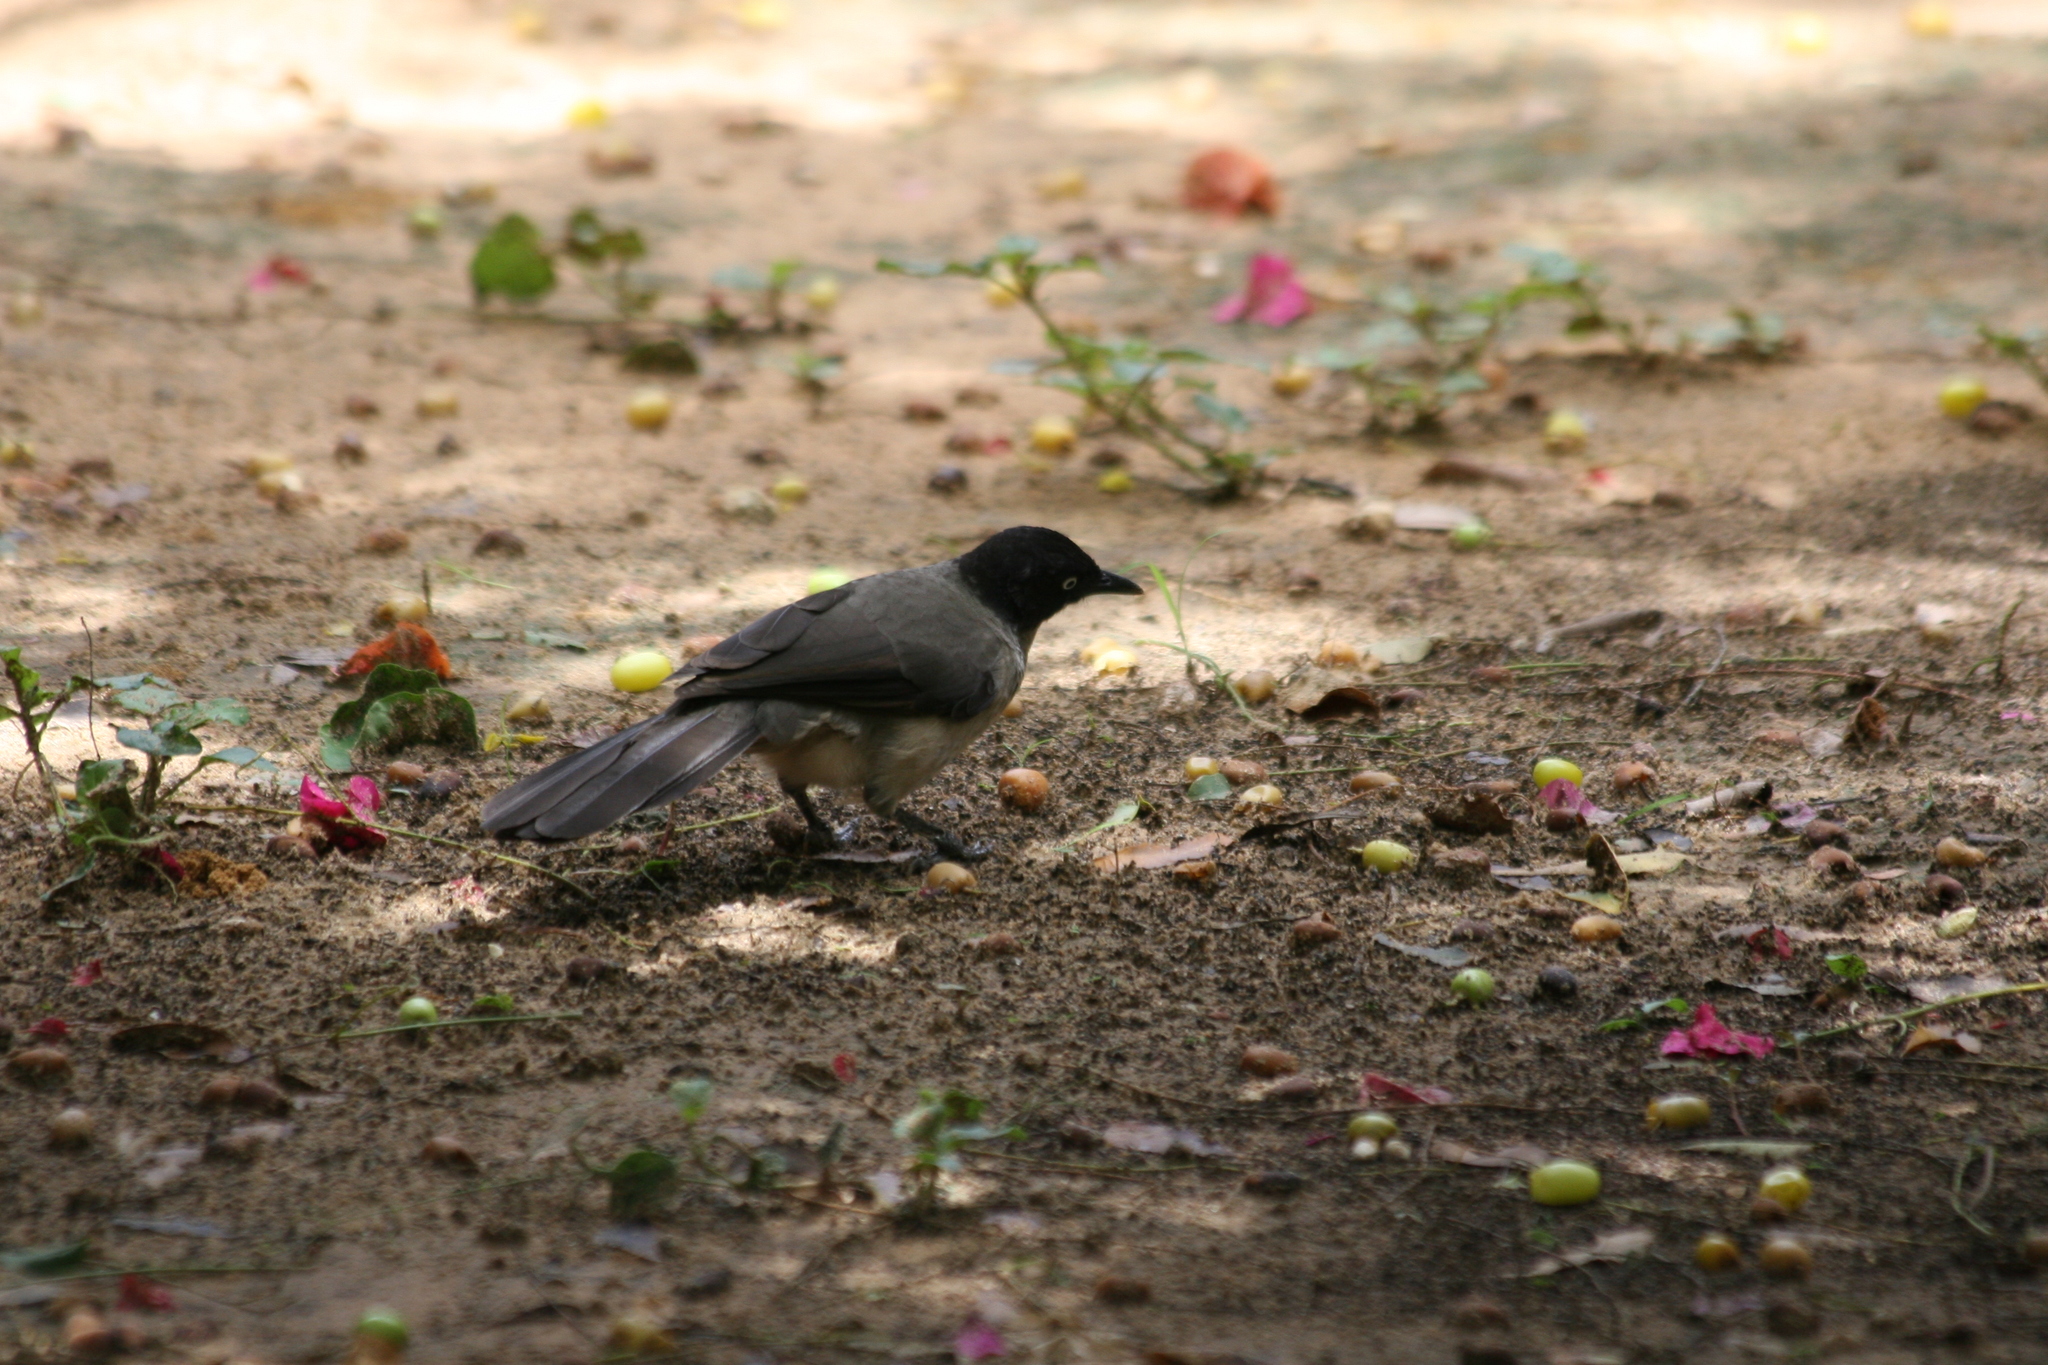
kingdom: Animalia
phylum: Chordata
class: Aves
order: Passeriformes
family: Leiothrichidae
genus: Turdoides
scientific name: Turdoides reinwardtii
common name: Blackcap babbler
